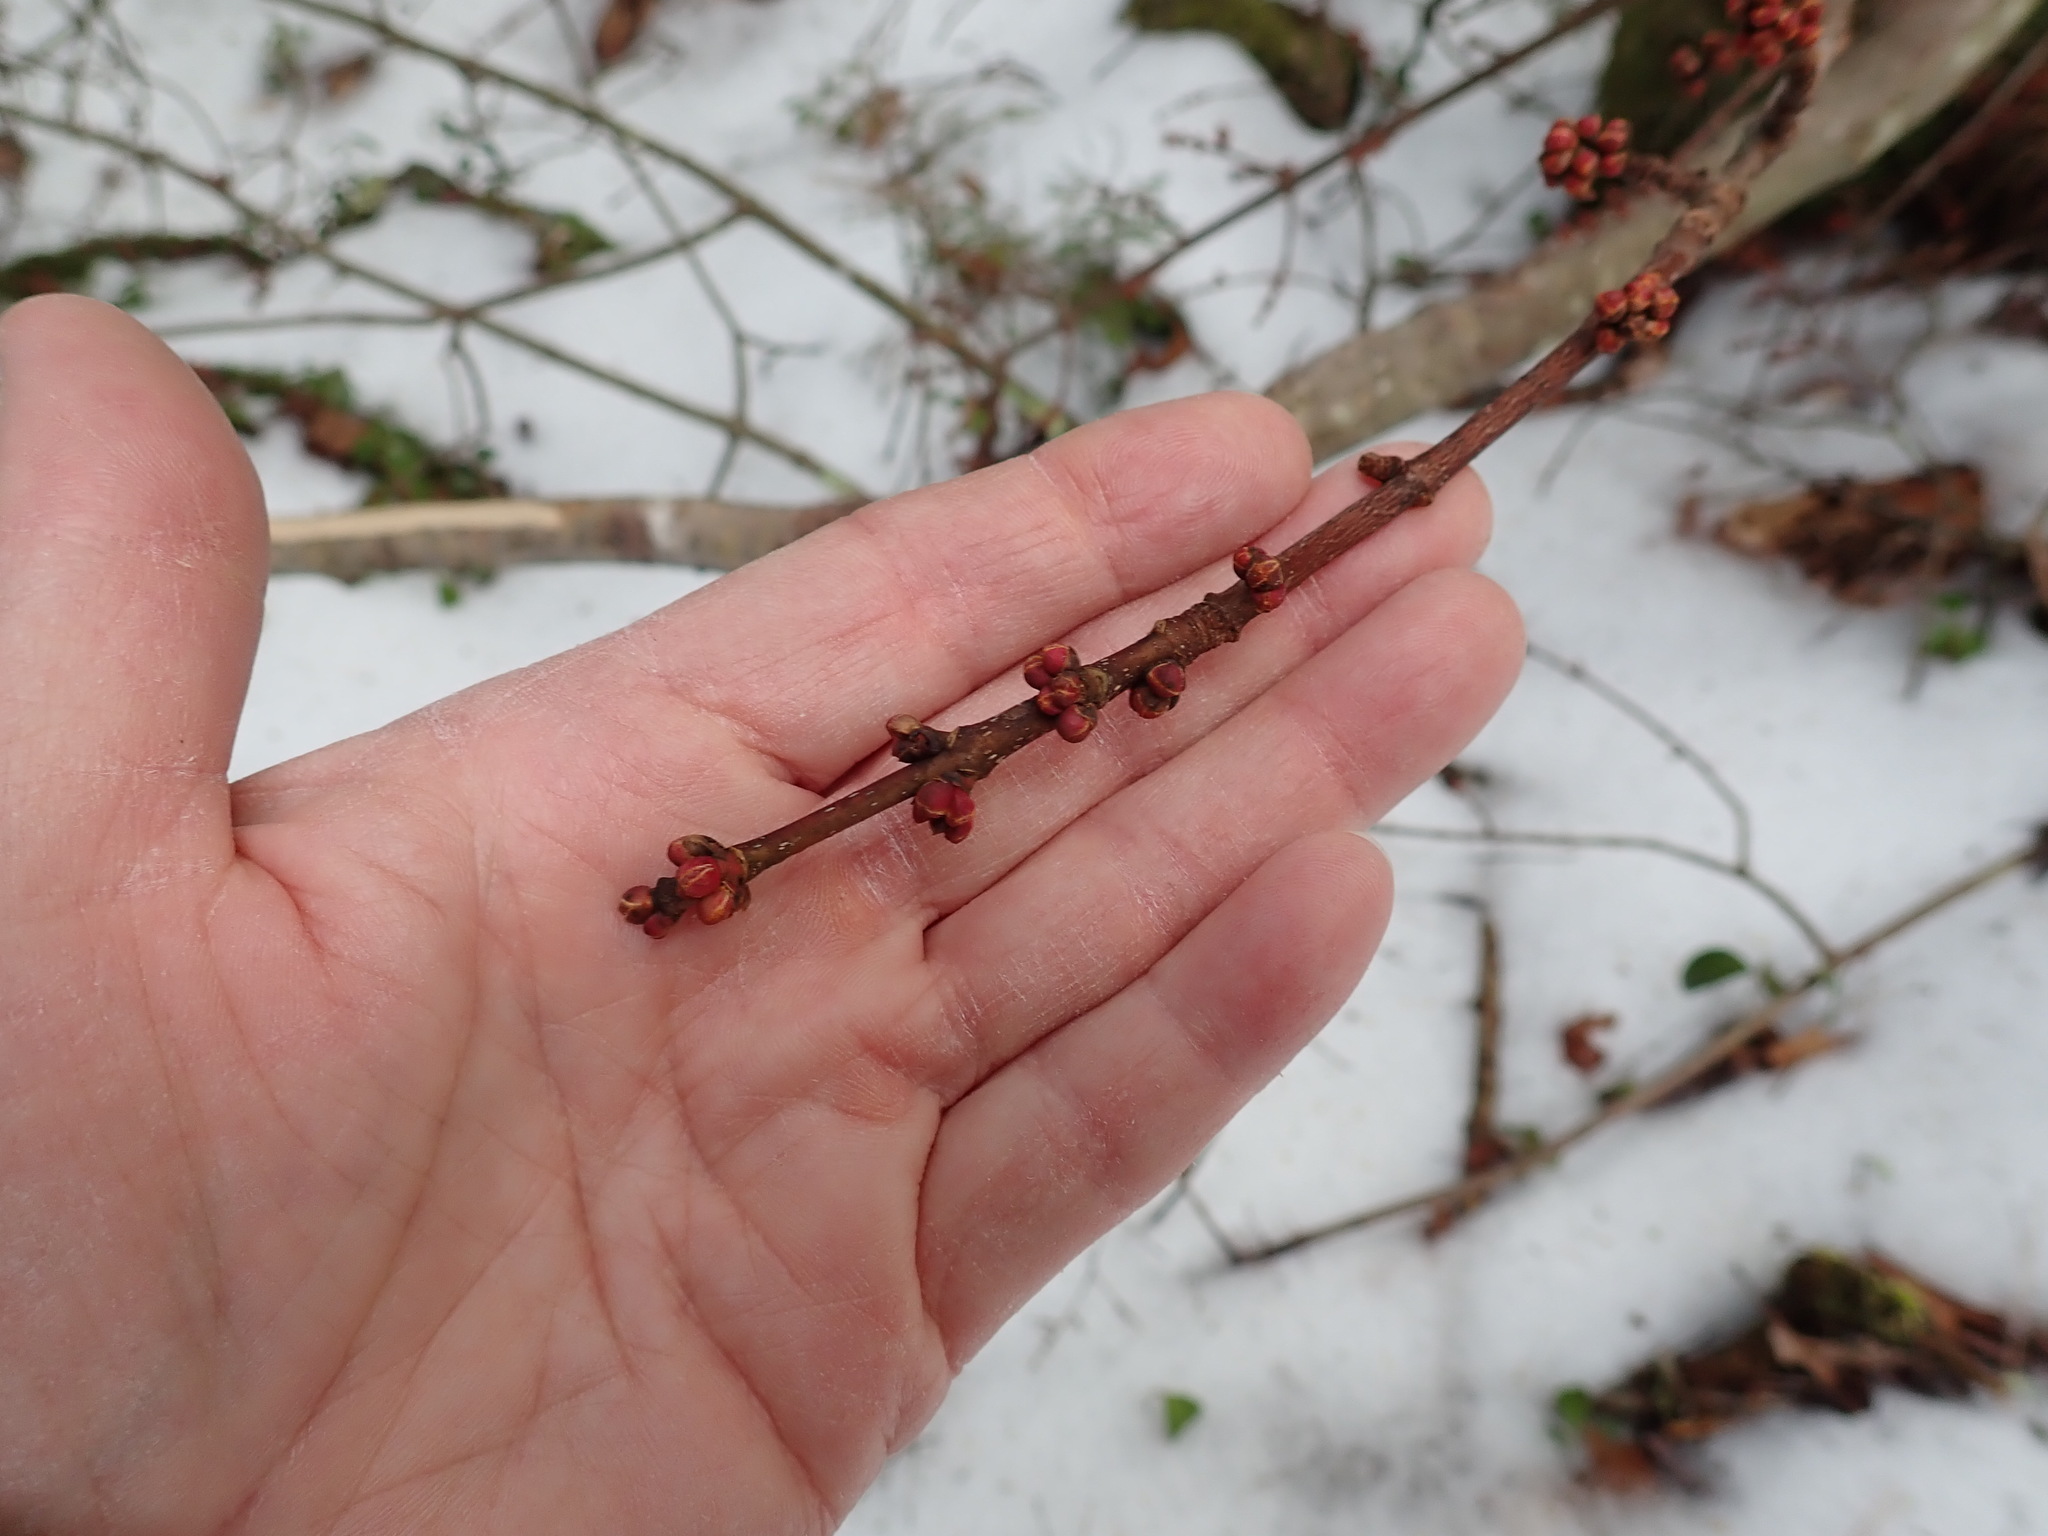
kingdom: Plantae
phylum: Tracheophyta
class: Magnoliopsida
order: Sapindales
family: Sapindaceae
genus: Acer
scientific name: Acer rubrum
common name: Red maple
